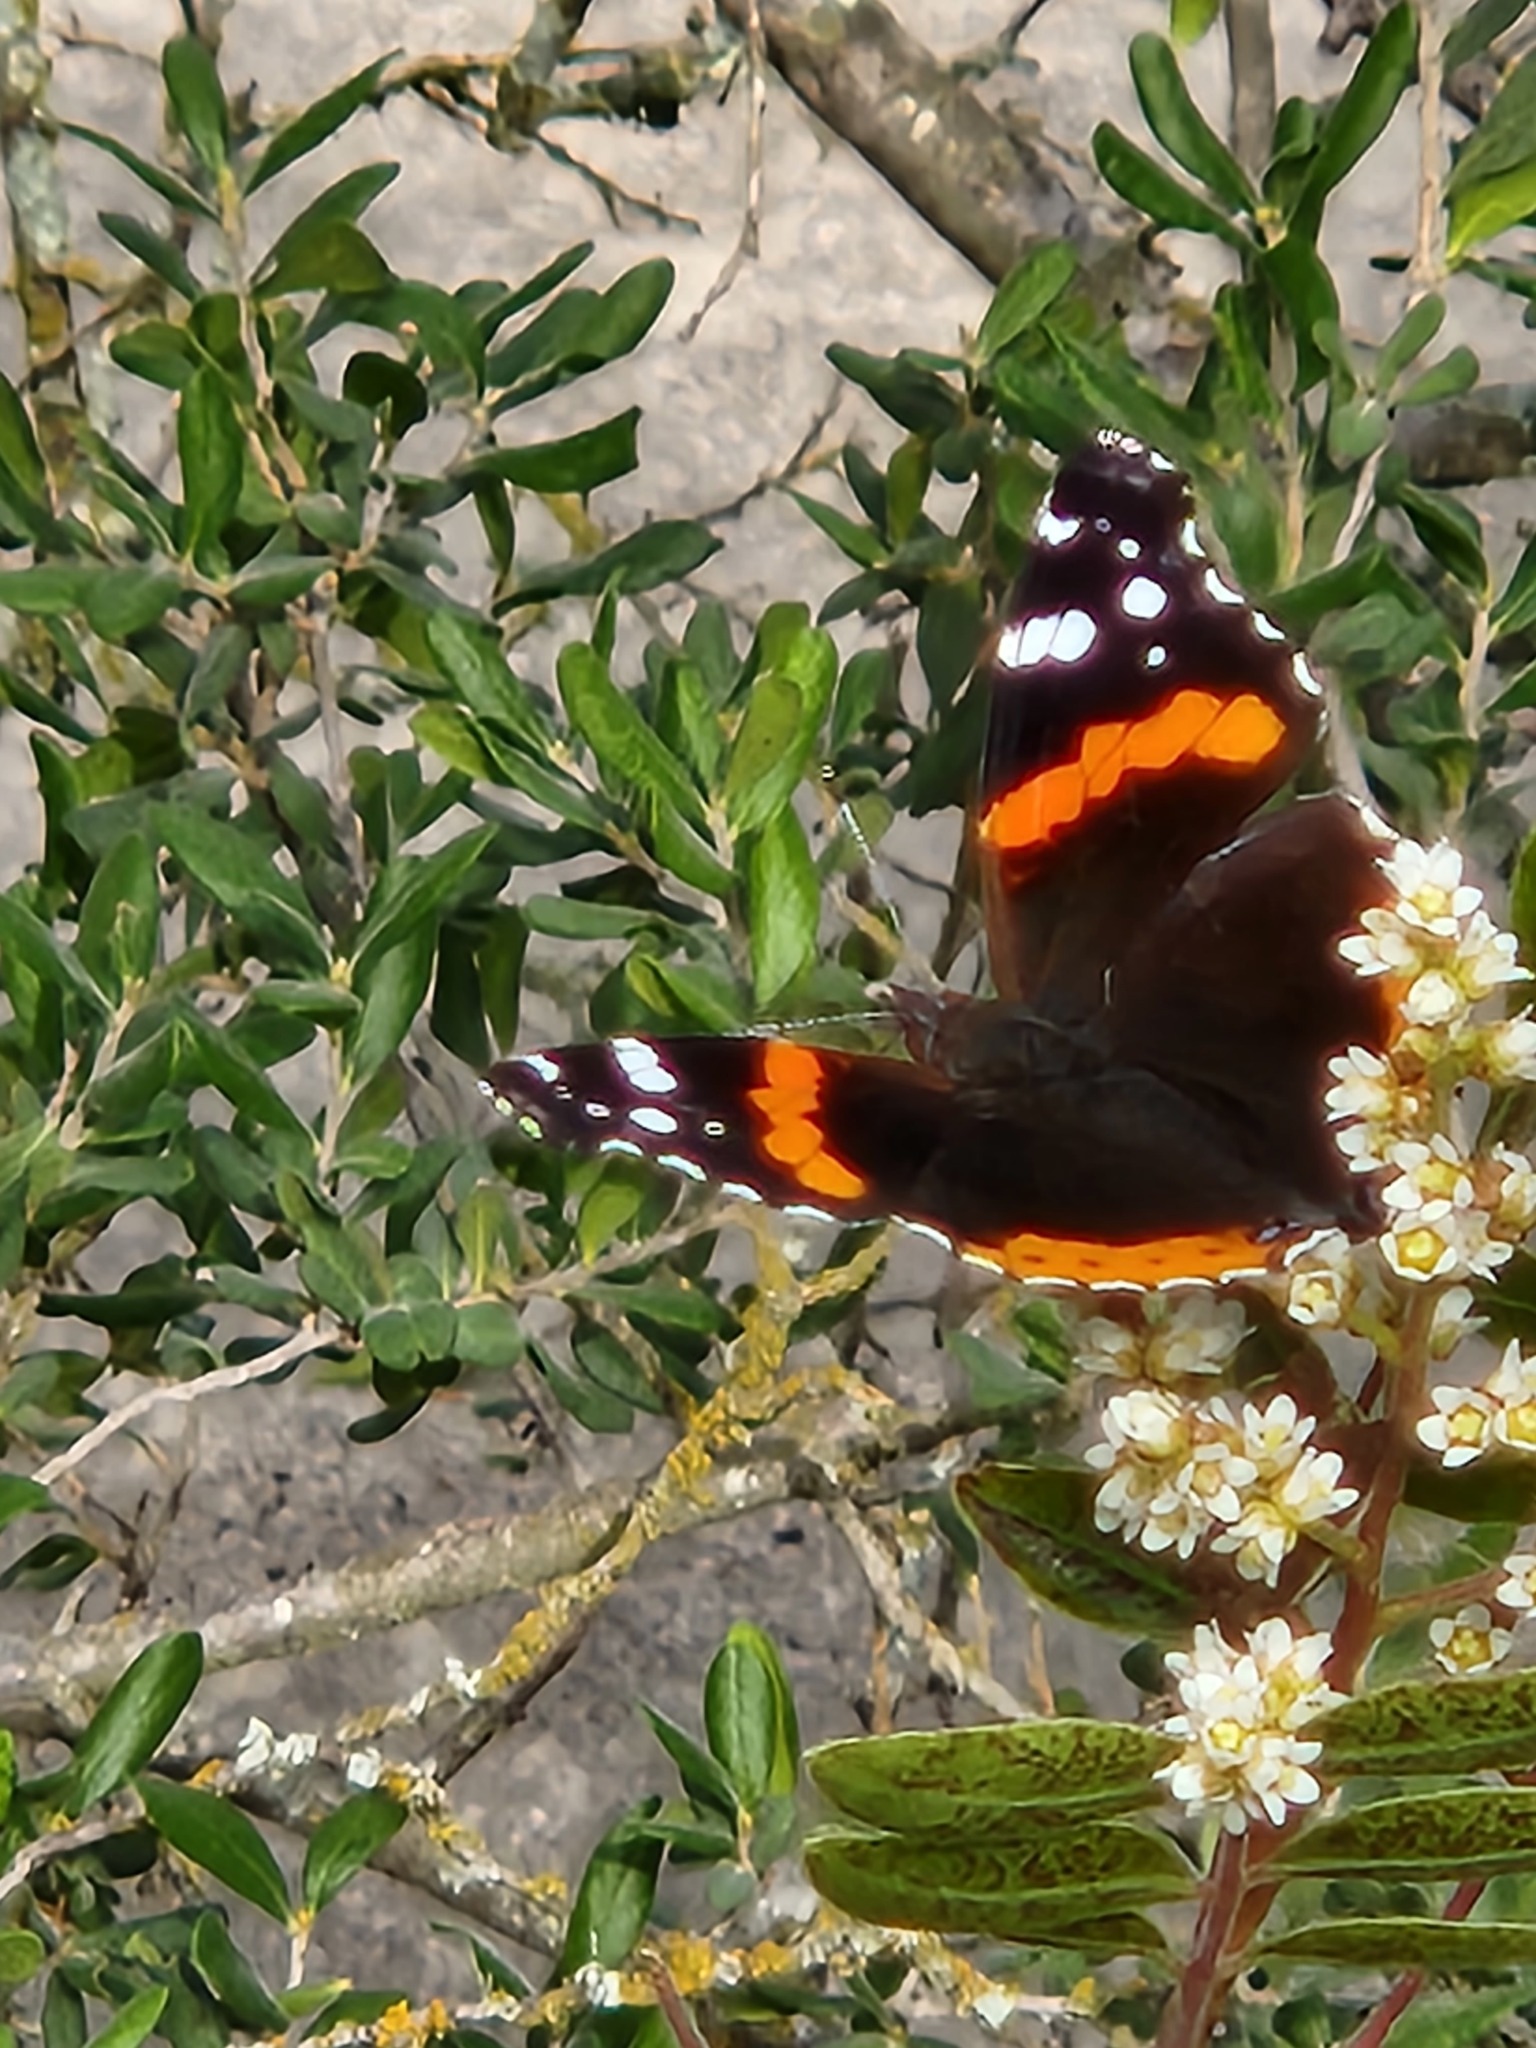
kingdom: Animalia
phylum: Arthropoda
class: Insecta
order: Lepidoptera
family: Nymphalidae
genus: Vanessa
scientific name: Vanessa atalanta
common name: Red admiral
